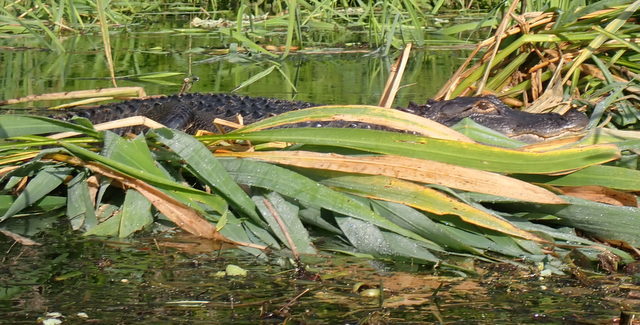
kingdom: Animalia
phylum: Chordata
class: Crocodylia
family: Alligatoridae
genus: Alligator
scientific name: Alligator mississippiensis
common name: American alligator
